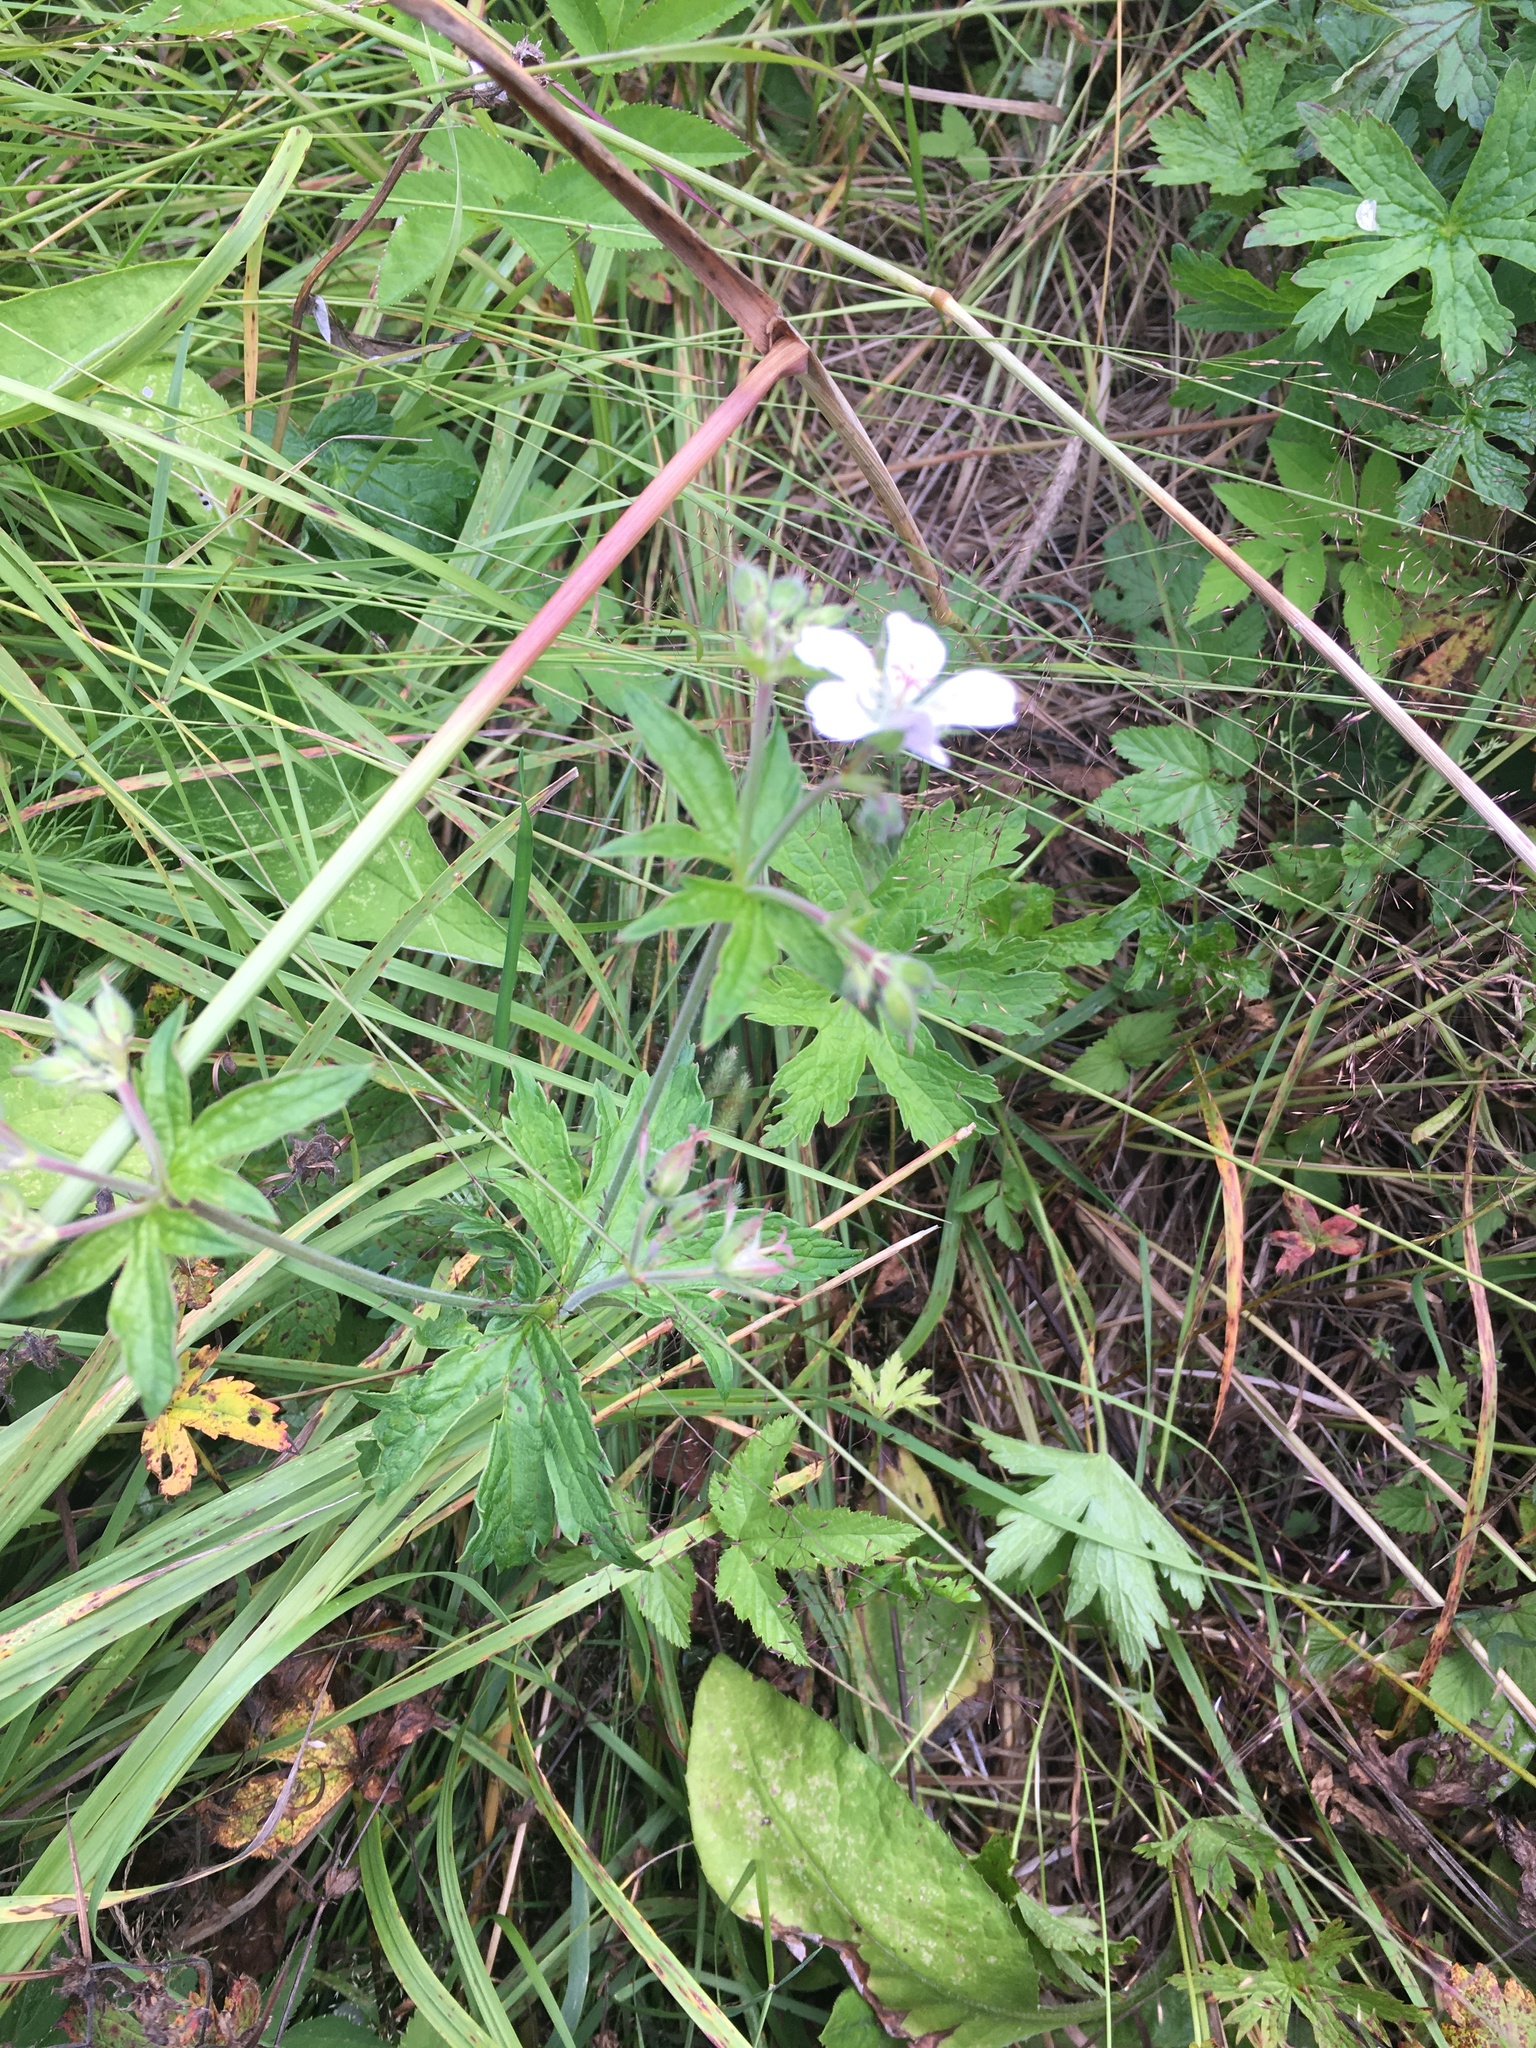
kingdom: Plantae
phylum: Tracheophyta
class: Magnoliopsida
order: Geraniales
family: Geraniaceae
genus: Geranium
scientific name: Geranium sylvaticum
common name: Wood crane's-bill
